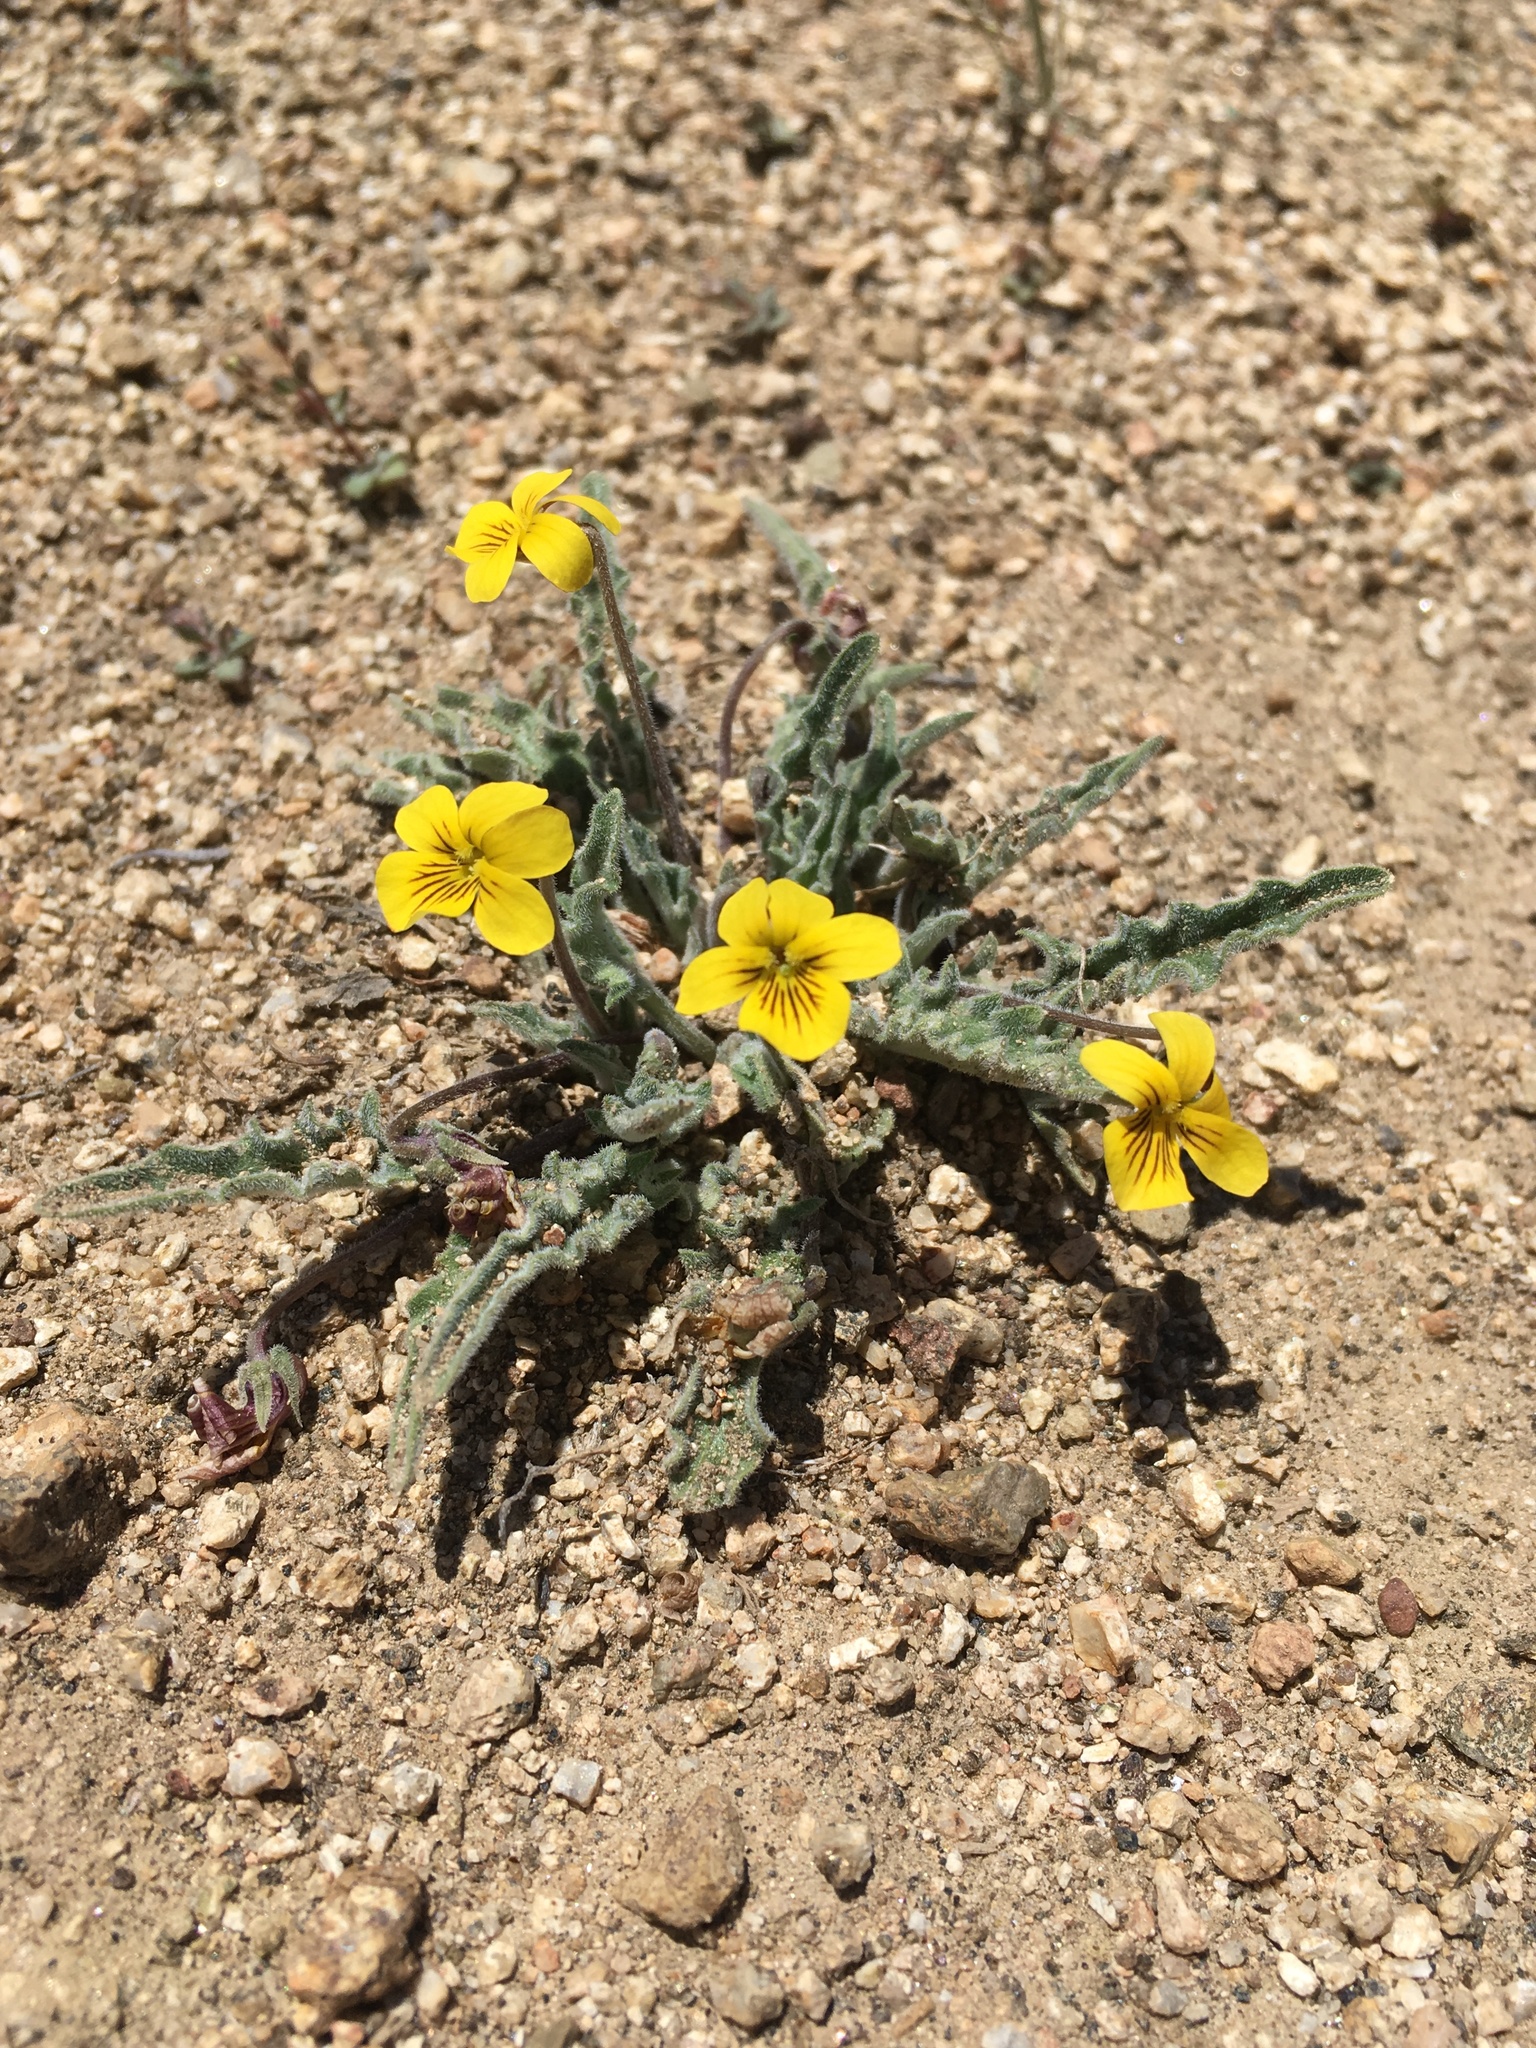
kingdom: Plantae
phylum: Tracheophyta
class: Magnoliopsida
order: Malpighiales
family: Violaceae
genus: Viola
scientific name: Viola pinetorum
